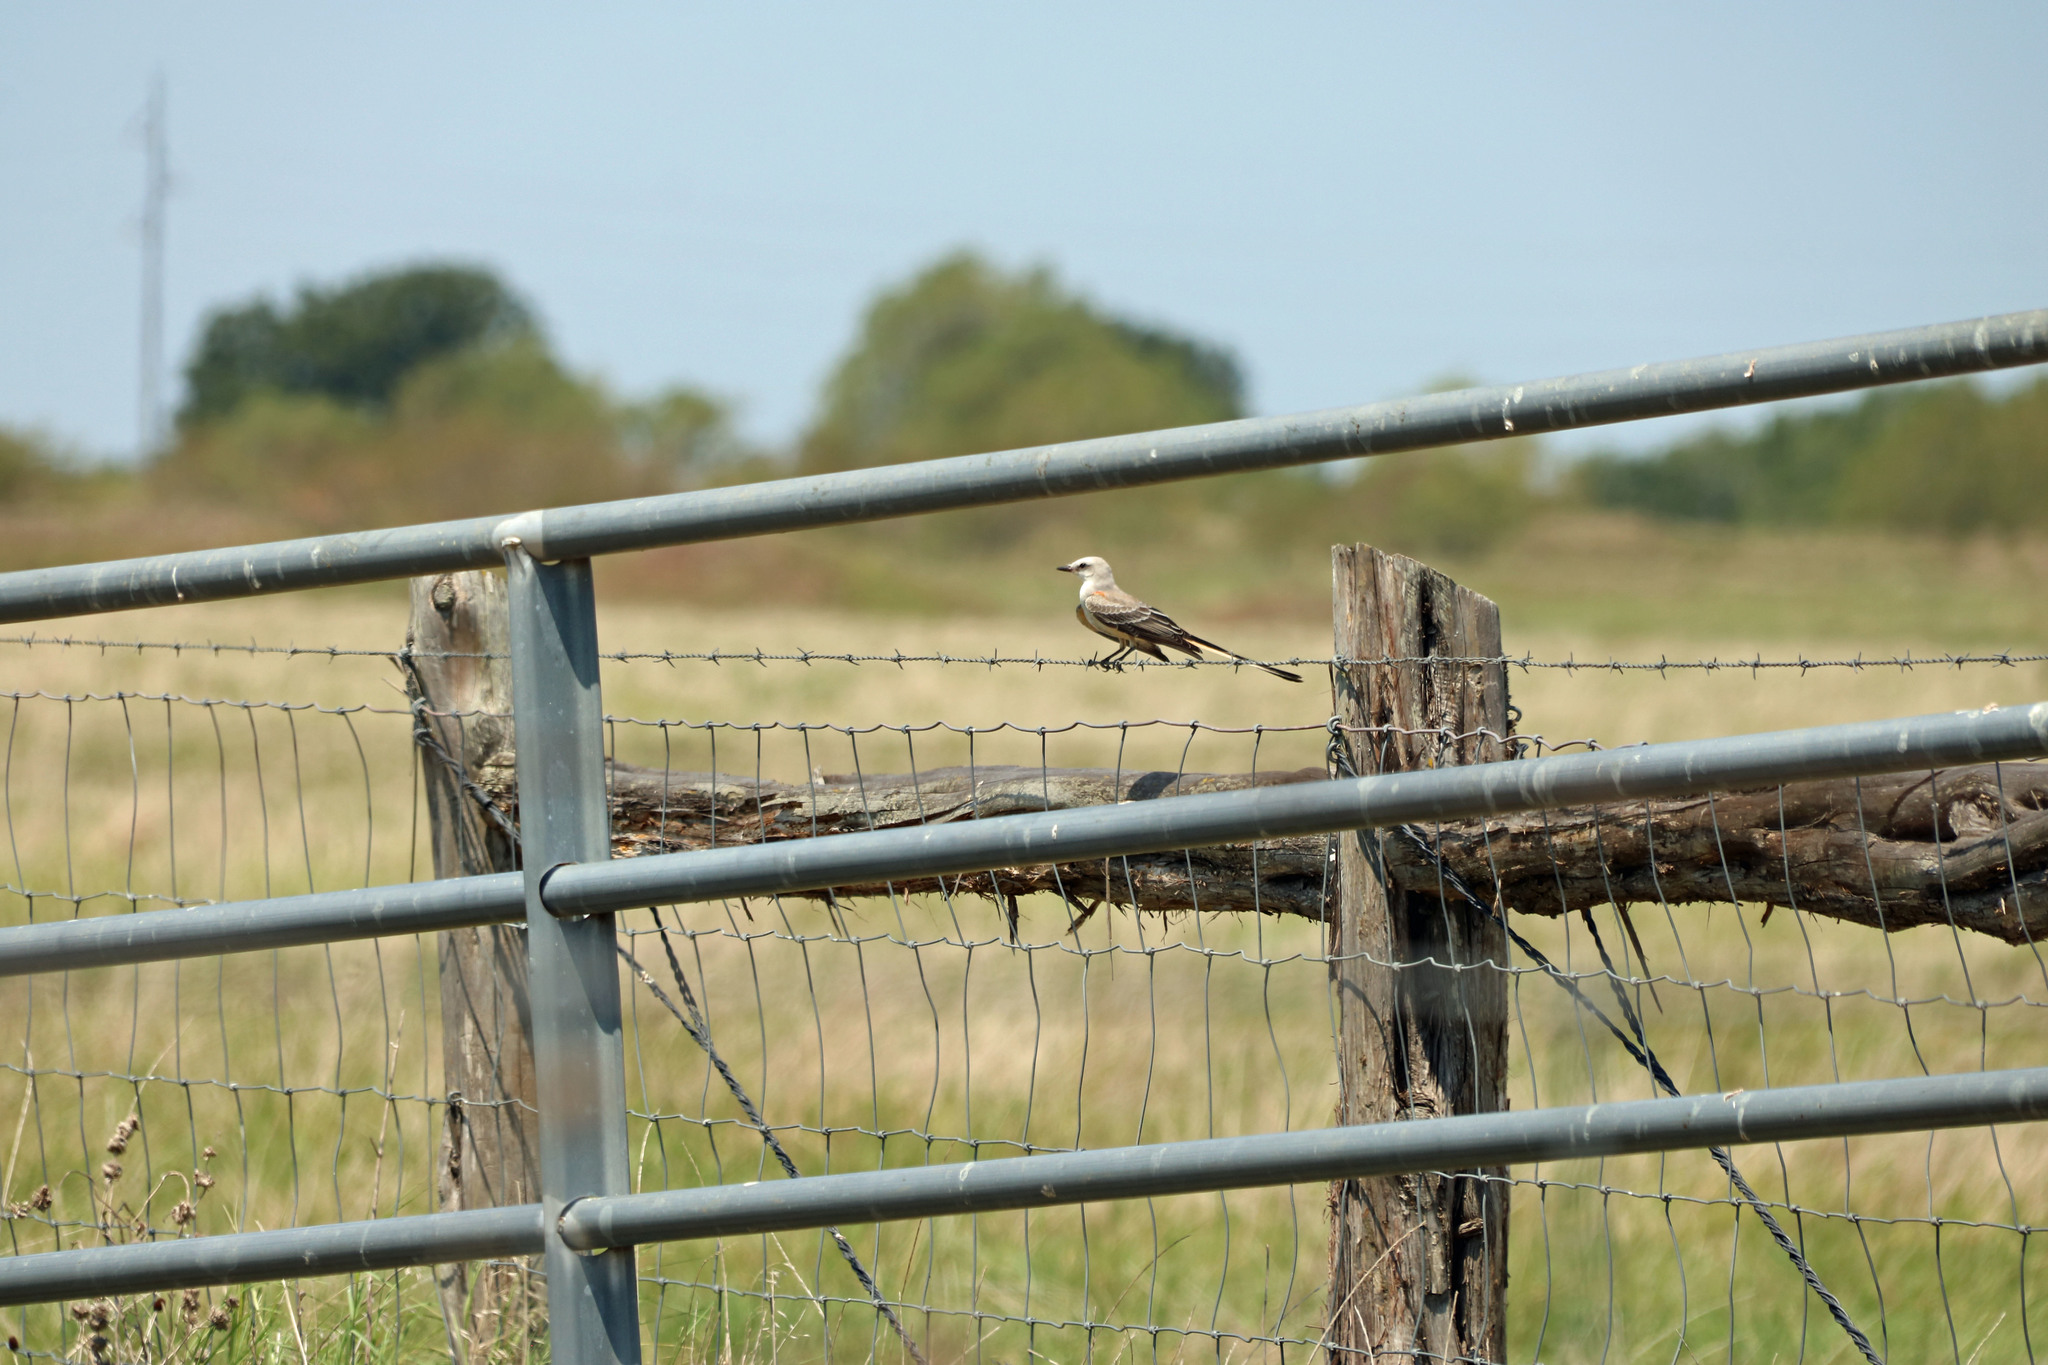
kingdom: Animalia
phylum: Chordata
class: Aves
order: Passeriformes
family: Tyrannidae
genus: Tyrannus
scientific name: Tyrannus forficatus
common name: Scissor-tailed flycatcher
